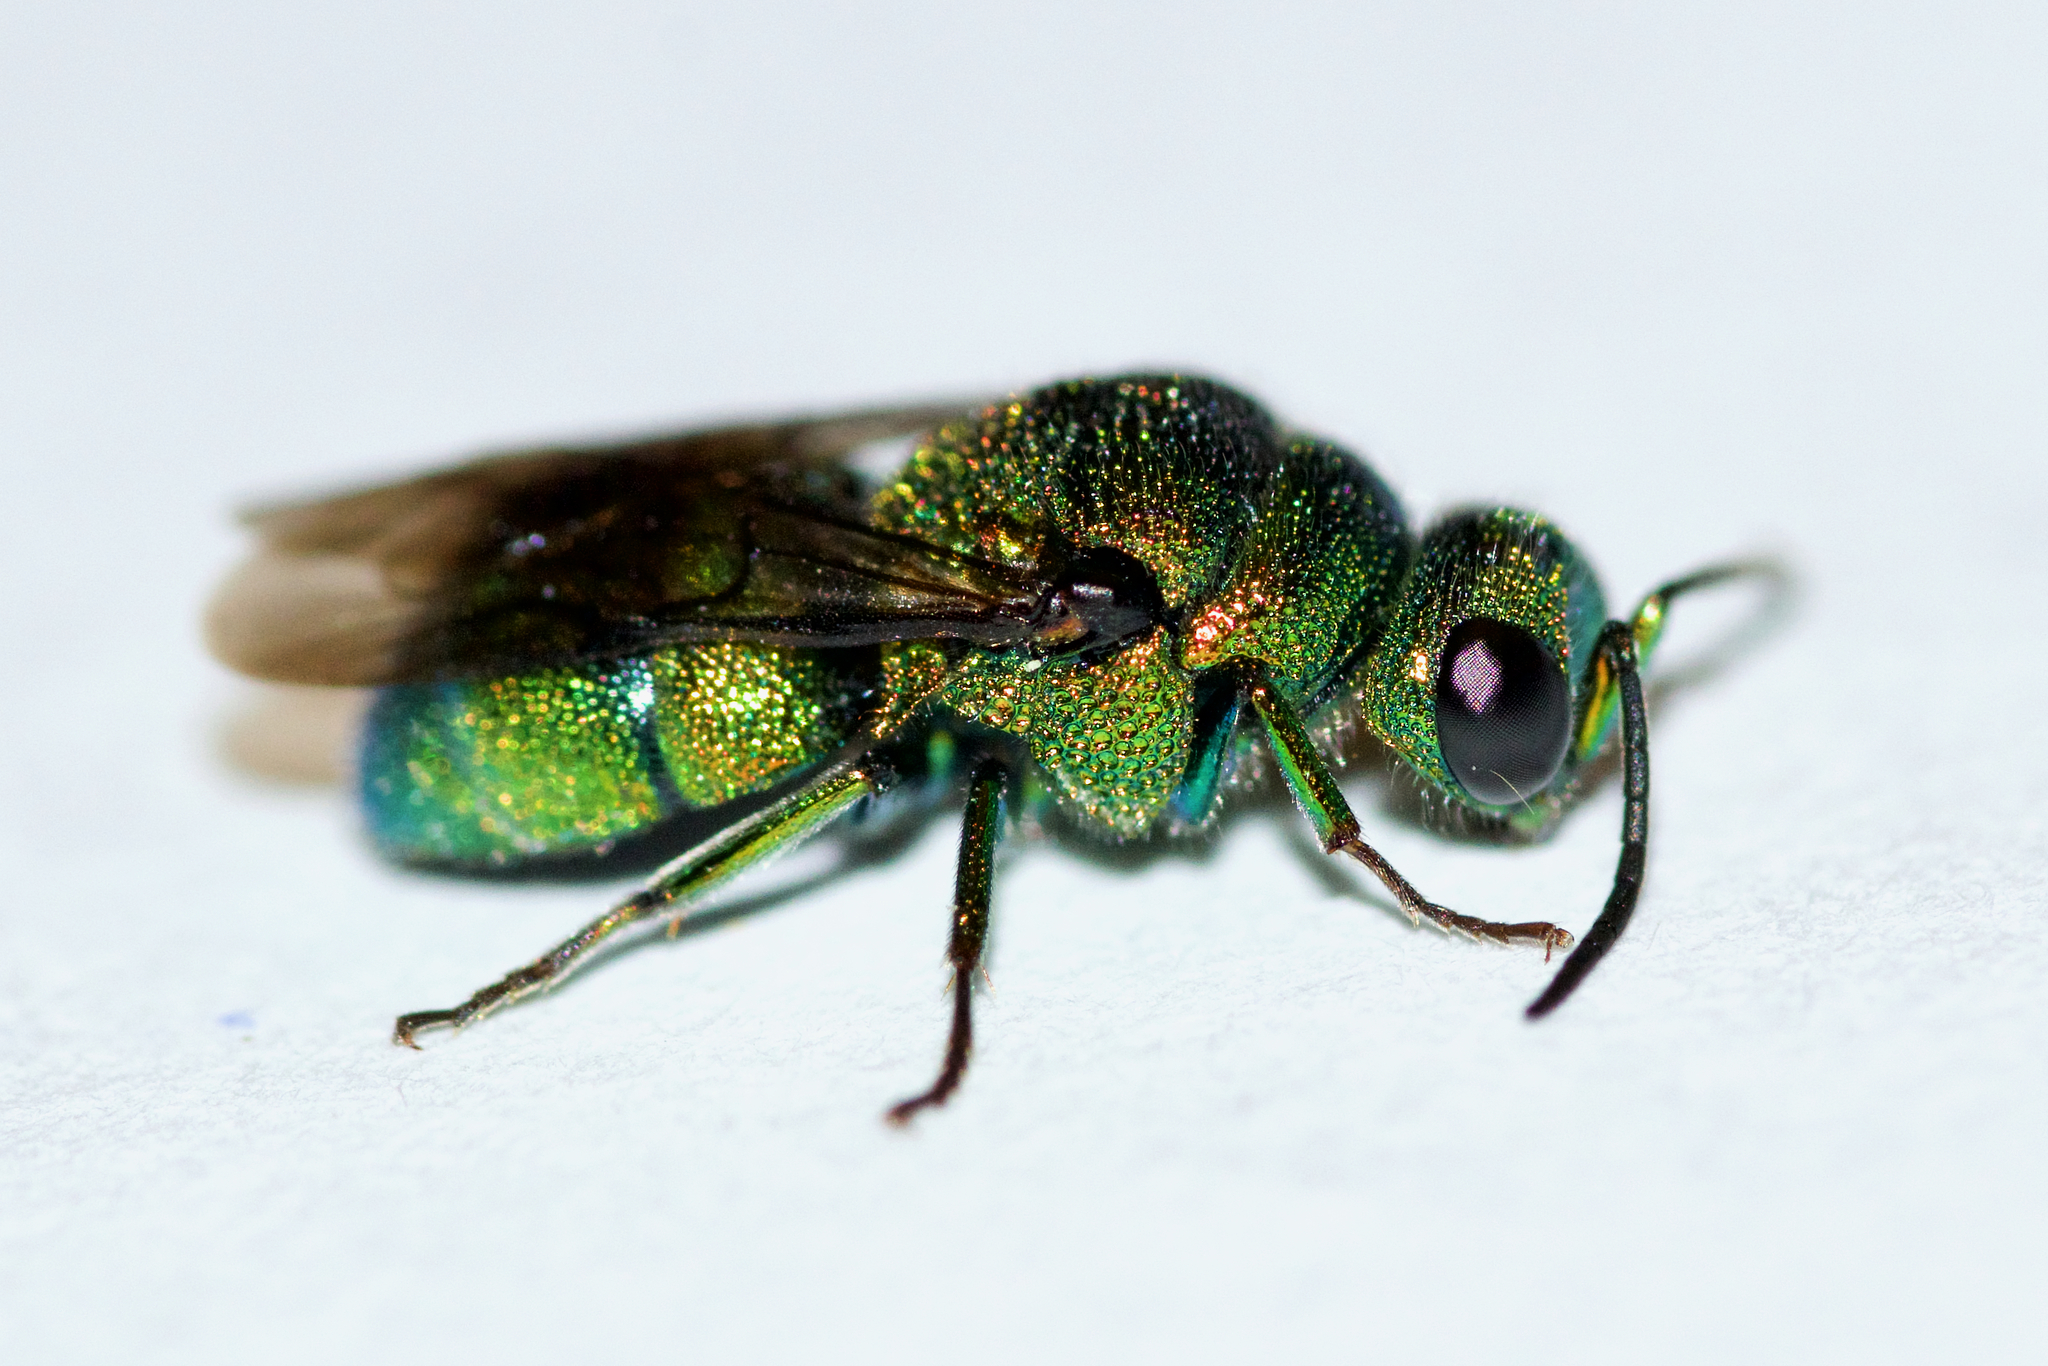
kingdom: Animalia
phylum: Arthropoda
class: Insecta
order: Hymenoptera
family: Chrysididae
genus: Holopyga
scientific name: Holopyga ventralis
